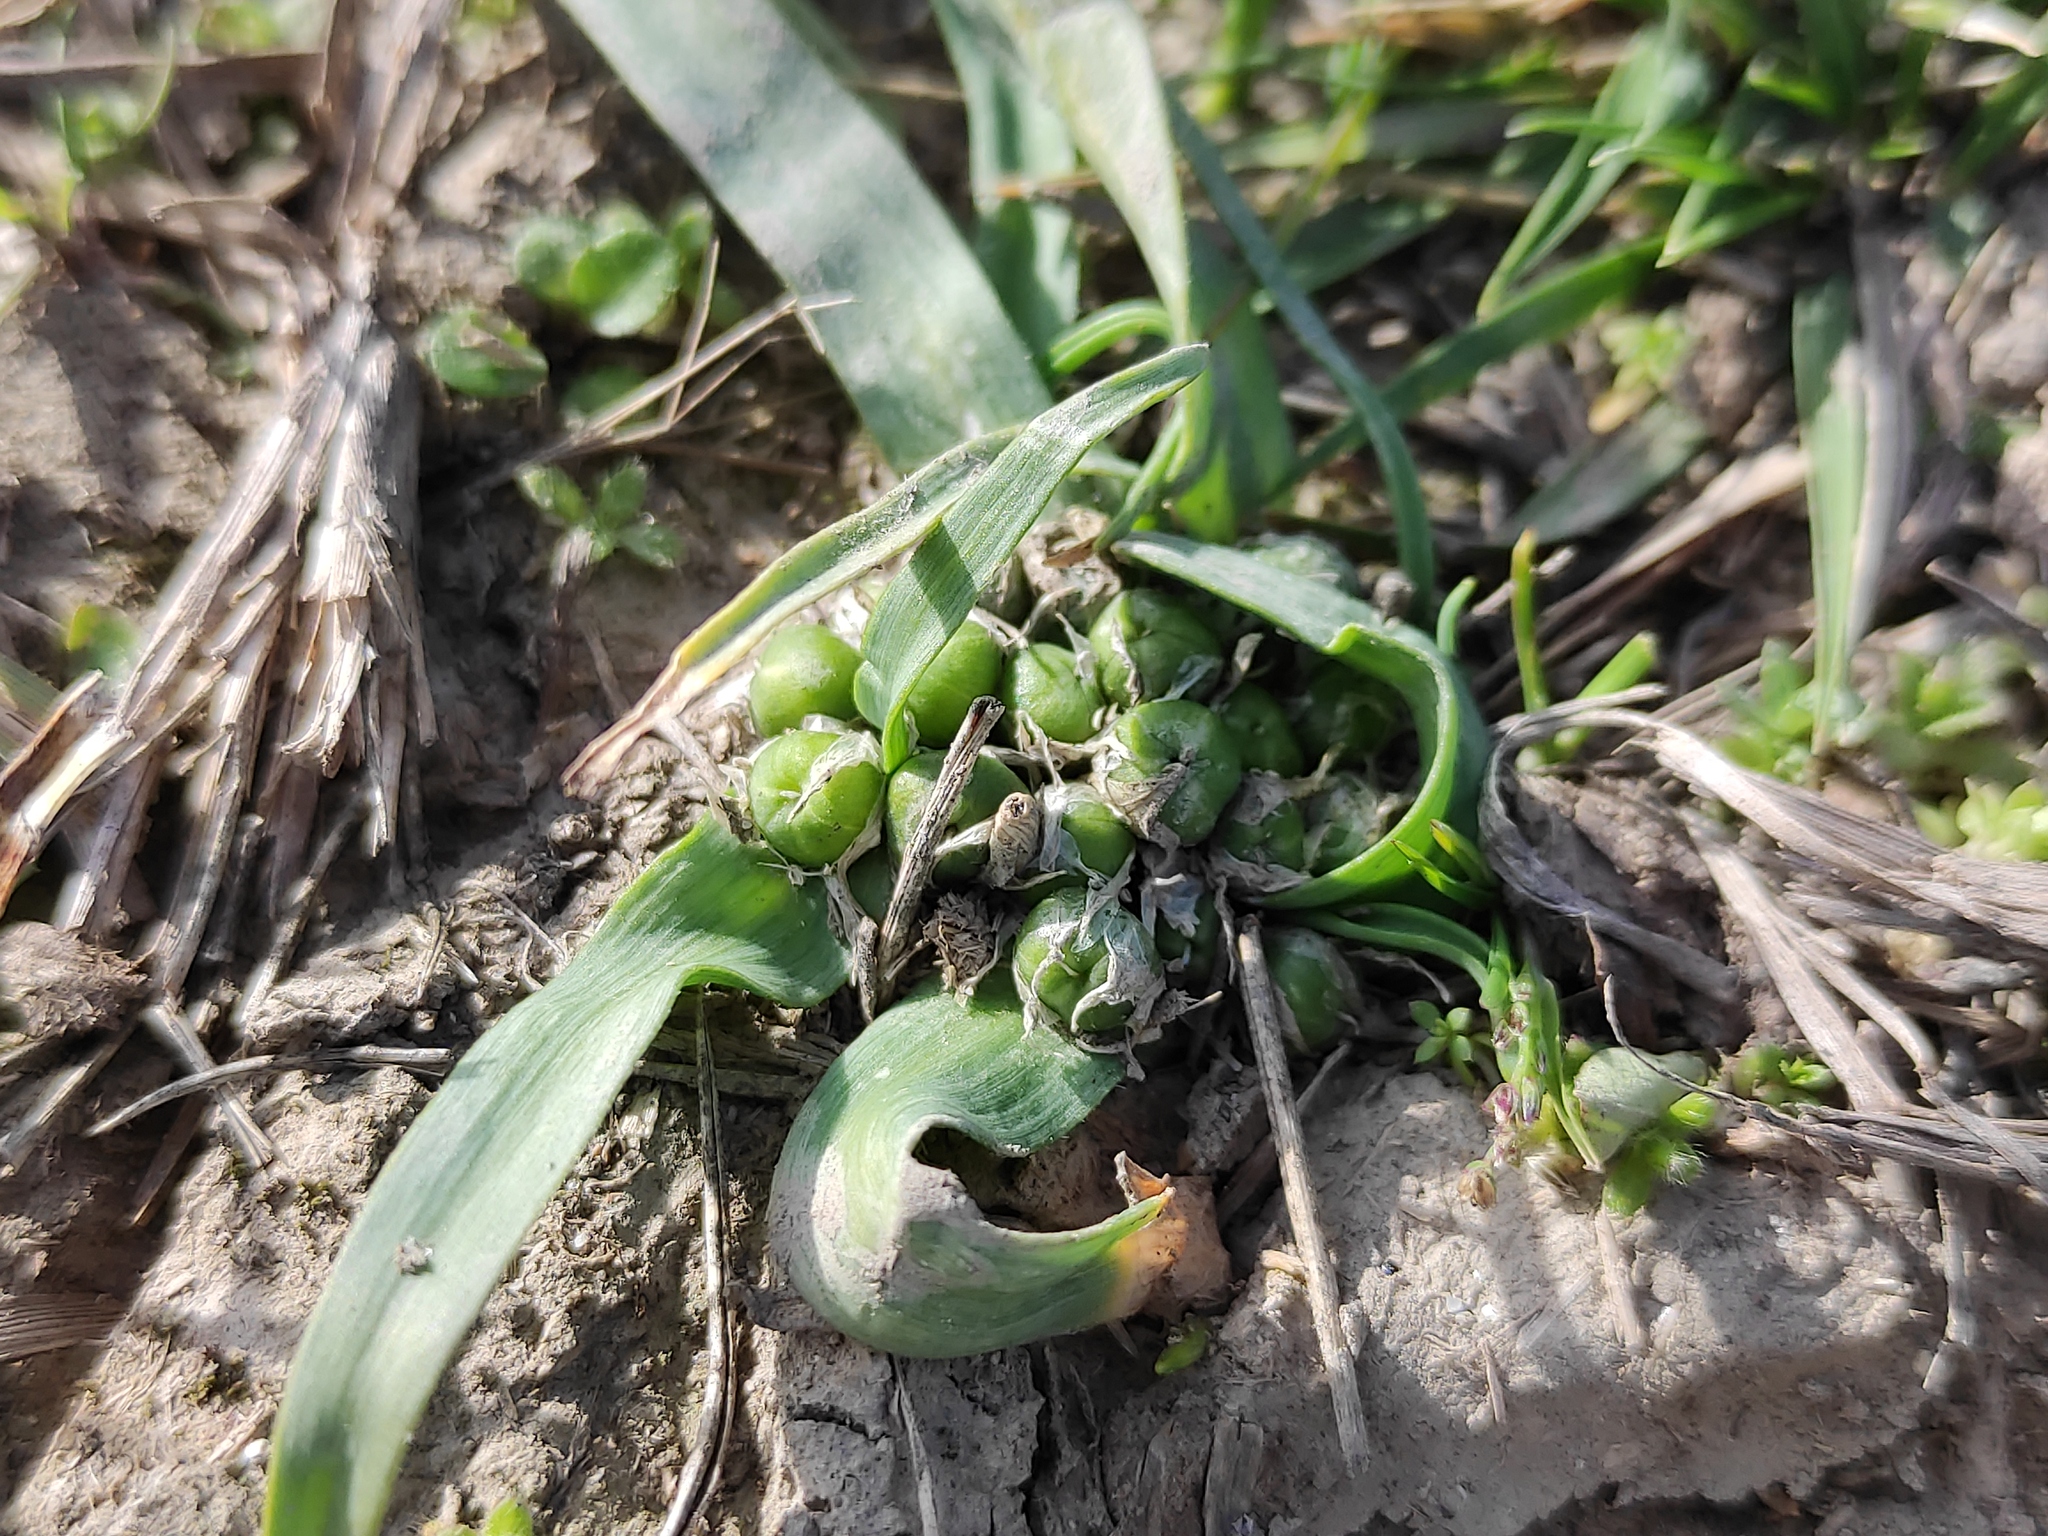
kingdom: Plantae
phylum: Tracheophyta
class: Liliopsida
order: Asparagales
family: Amaryllidaceae
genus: Allium
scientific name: Allium chamaemoly
